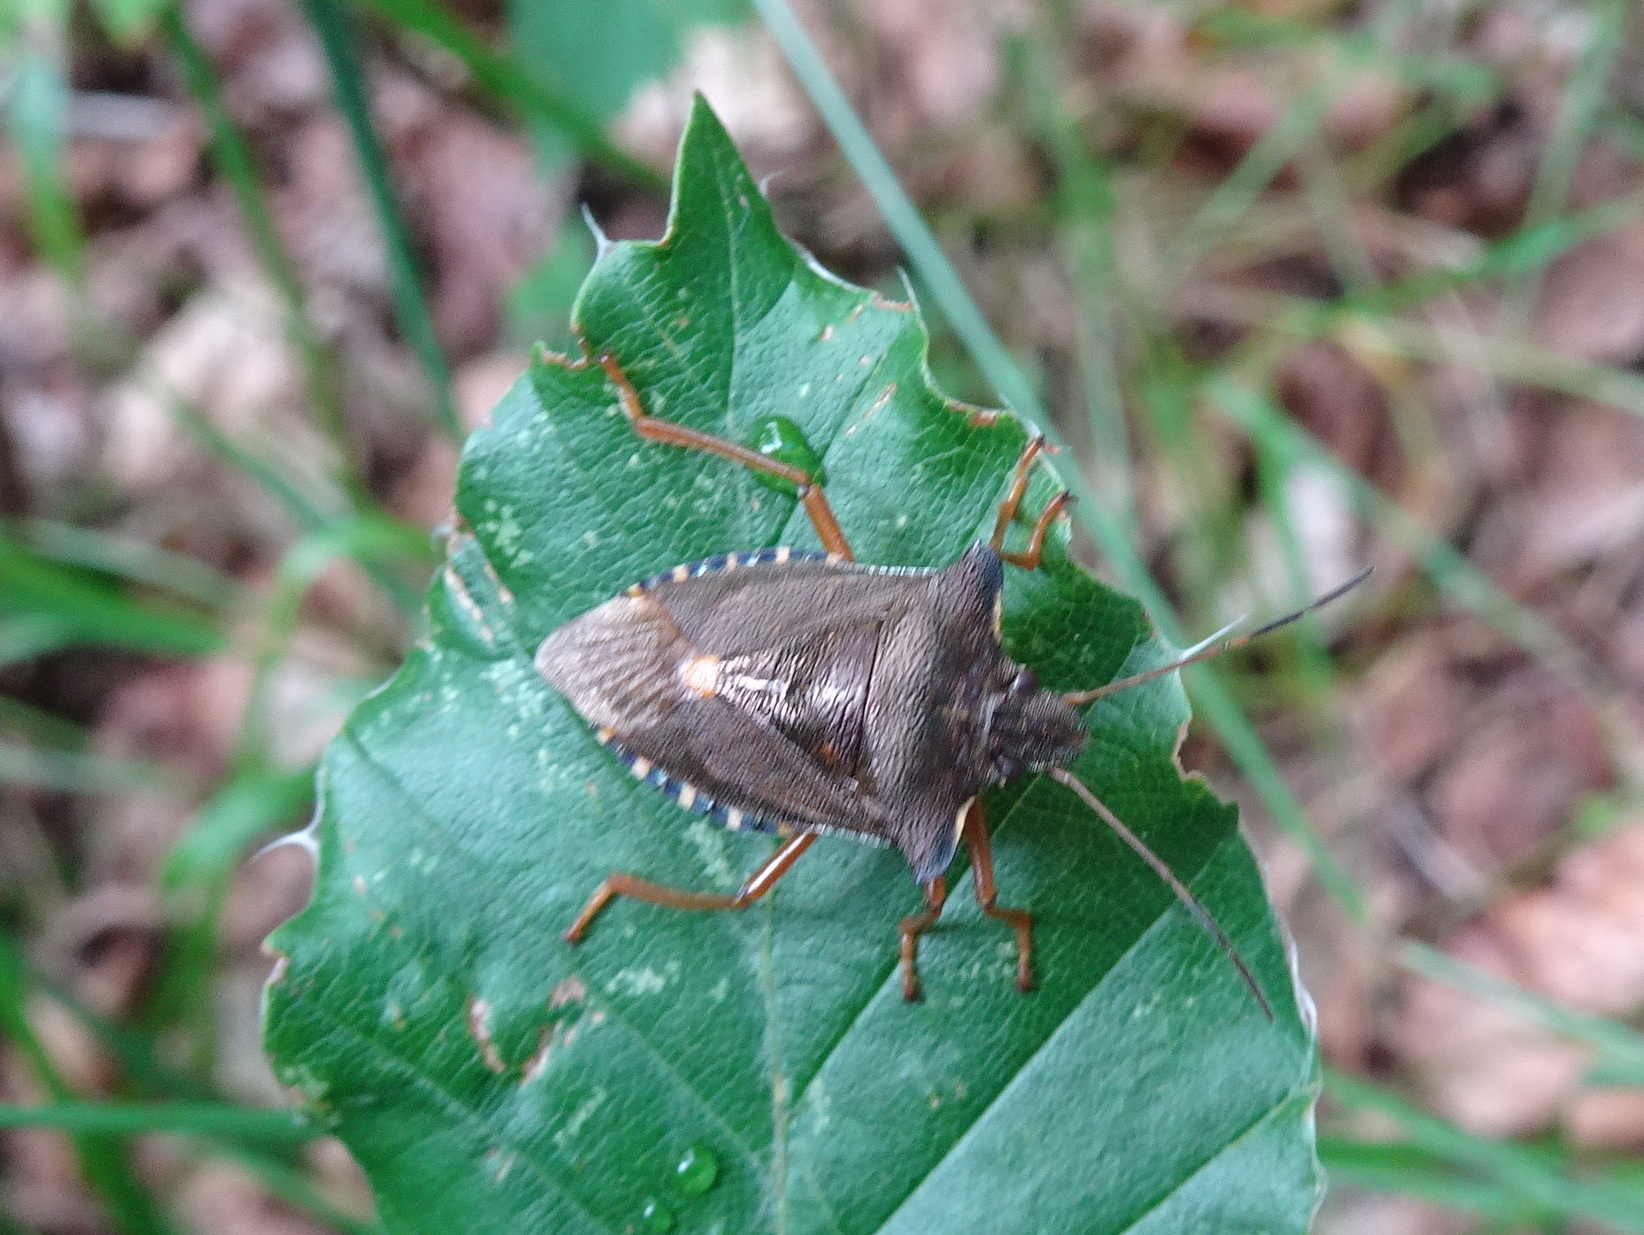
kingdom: Animalia
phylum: Arthropoda
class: Insecta
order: Hemiptera
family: Pentatomidae
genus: Pentatoma
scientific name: Pentatoma rufipes
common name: Forest bug
